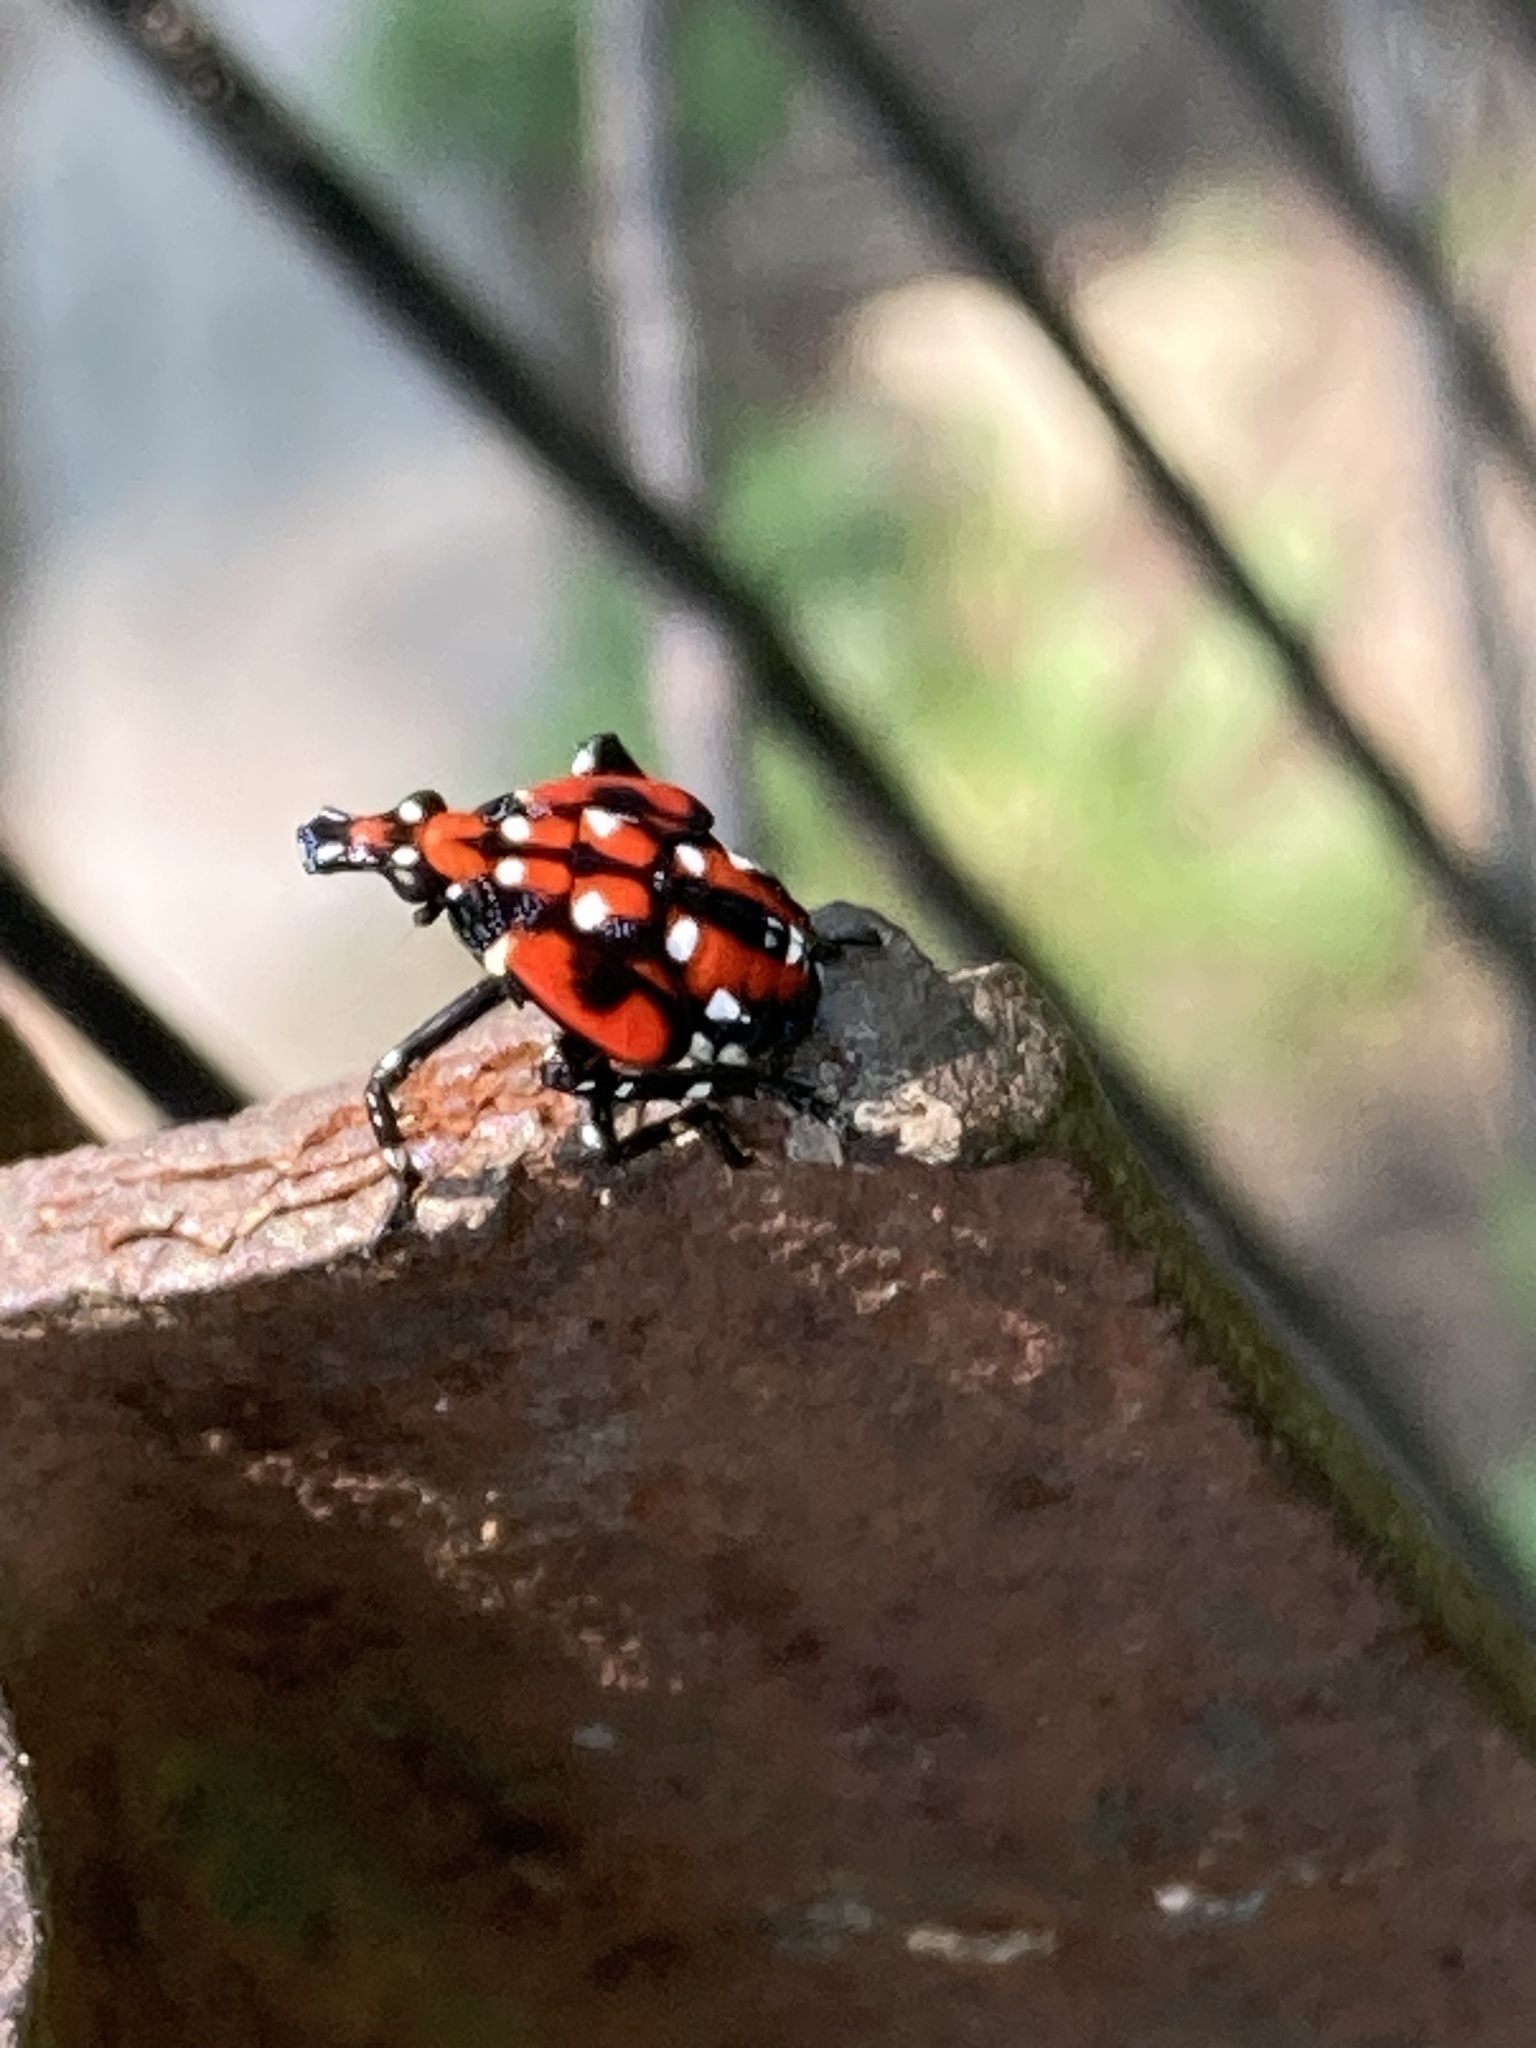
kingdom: Animalia
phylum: Arthropoda
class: Insecta
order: Hemiptera
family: Fulgoridae
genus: Lycorma
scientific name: Lycorma delicatula
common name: Spotted lanternfly
